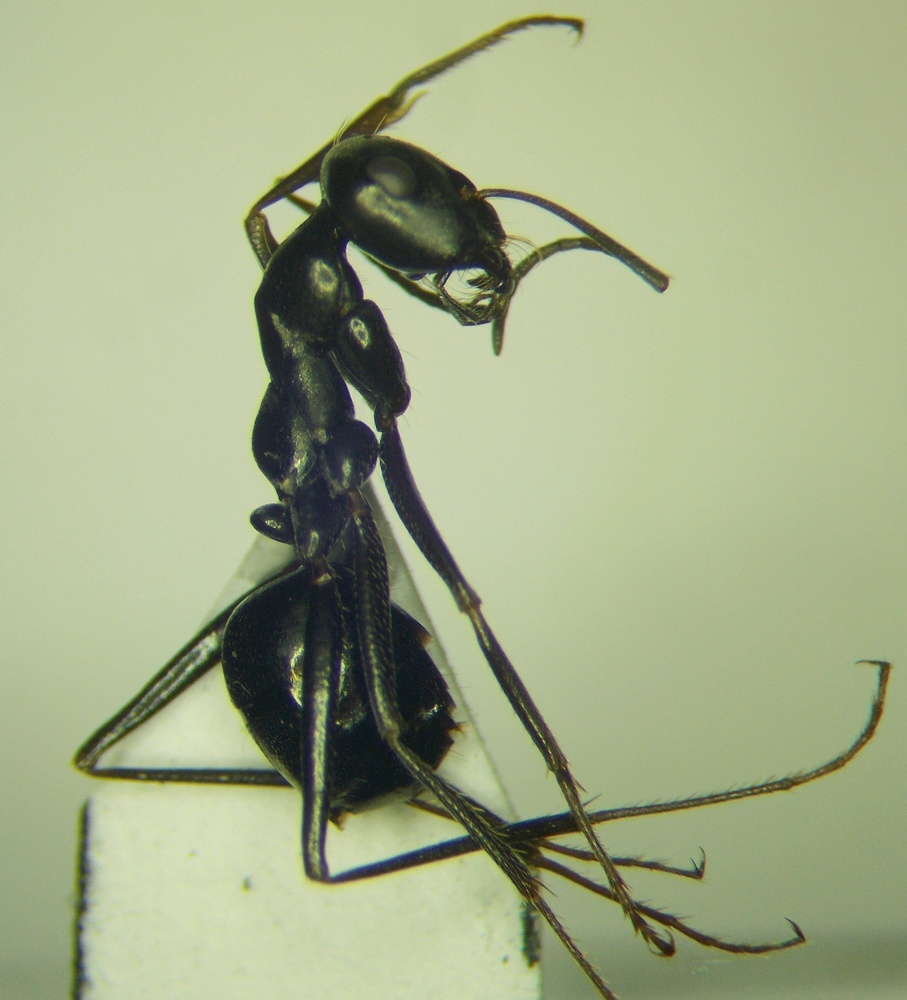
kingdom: Animalia
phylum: Arthropoda
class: Insecta
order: Hymenoptera
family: Formicidae
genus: Cataglyphis
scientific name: Cataglyphis aenescens
